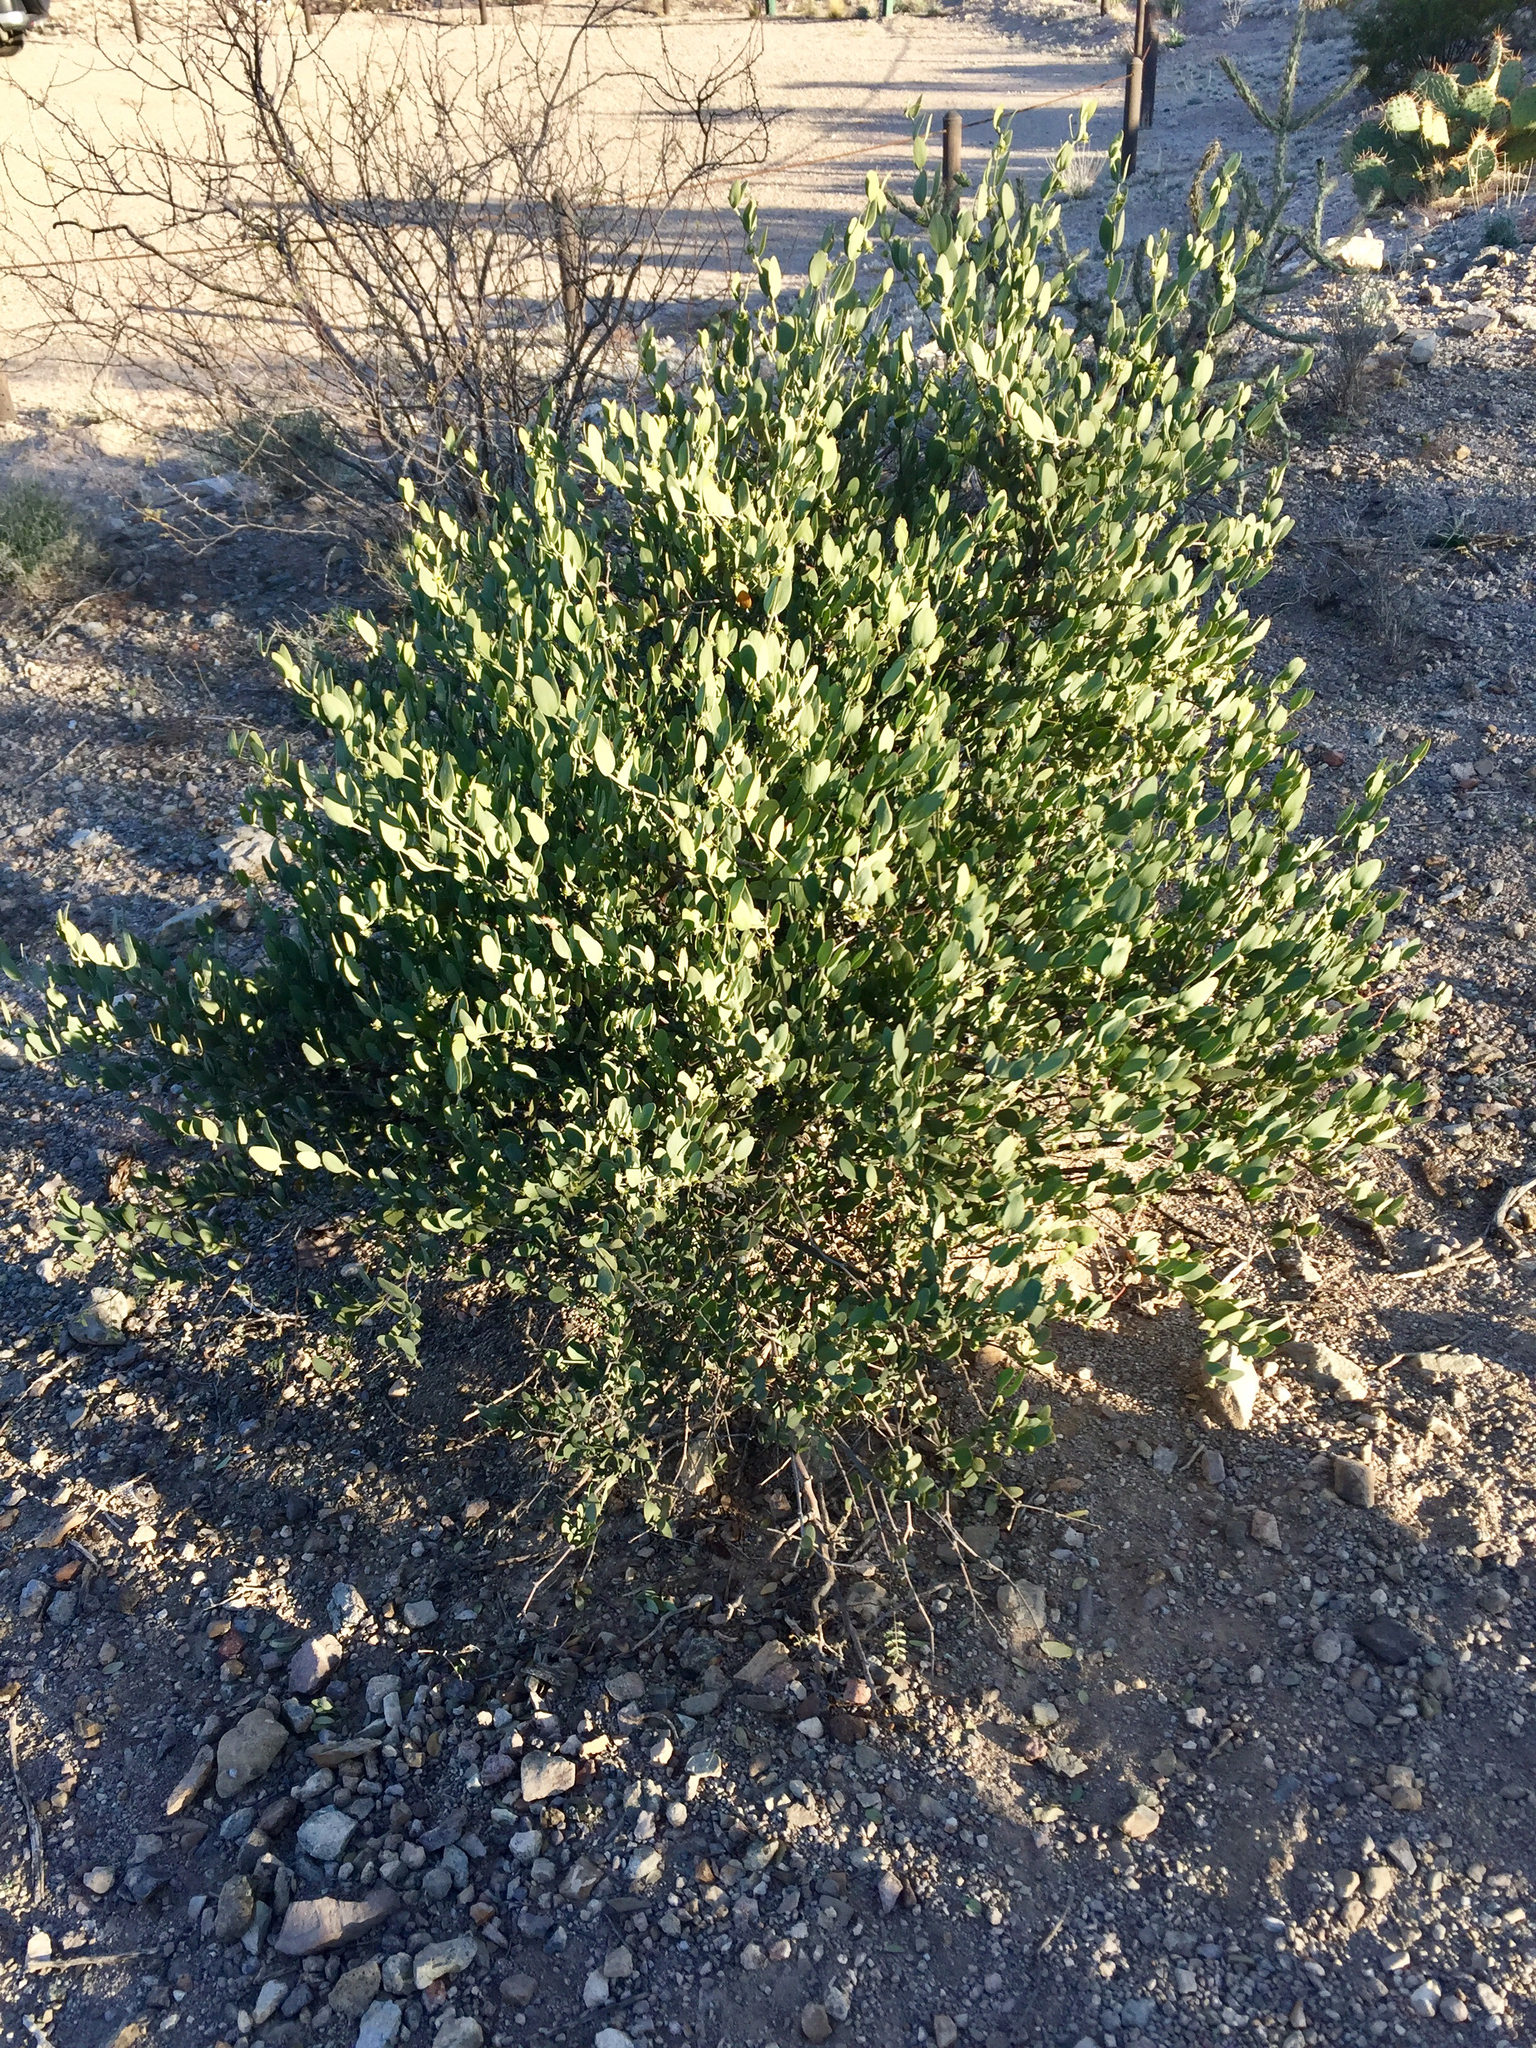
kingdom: Plantae
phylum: Tracheophyta
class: Magnoliopsida
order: Caryophyllales
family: Simmondsiaceae
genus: Simmondsia
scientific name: Simmondsia chinensis
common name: Jojoba
